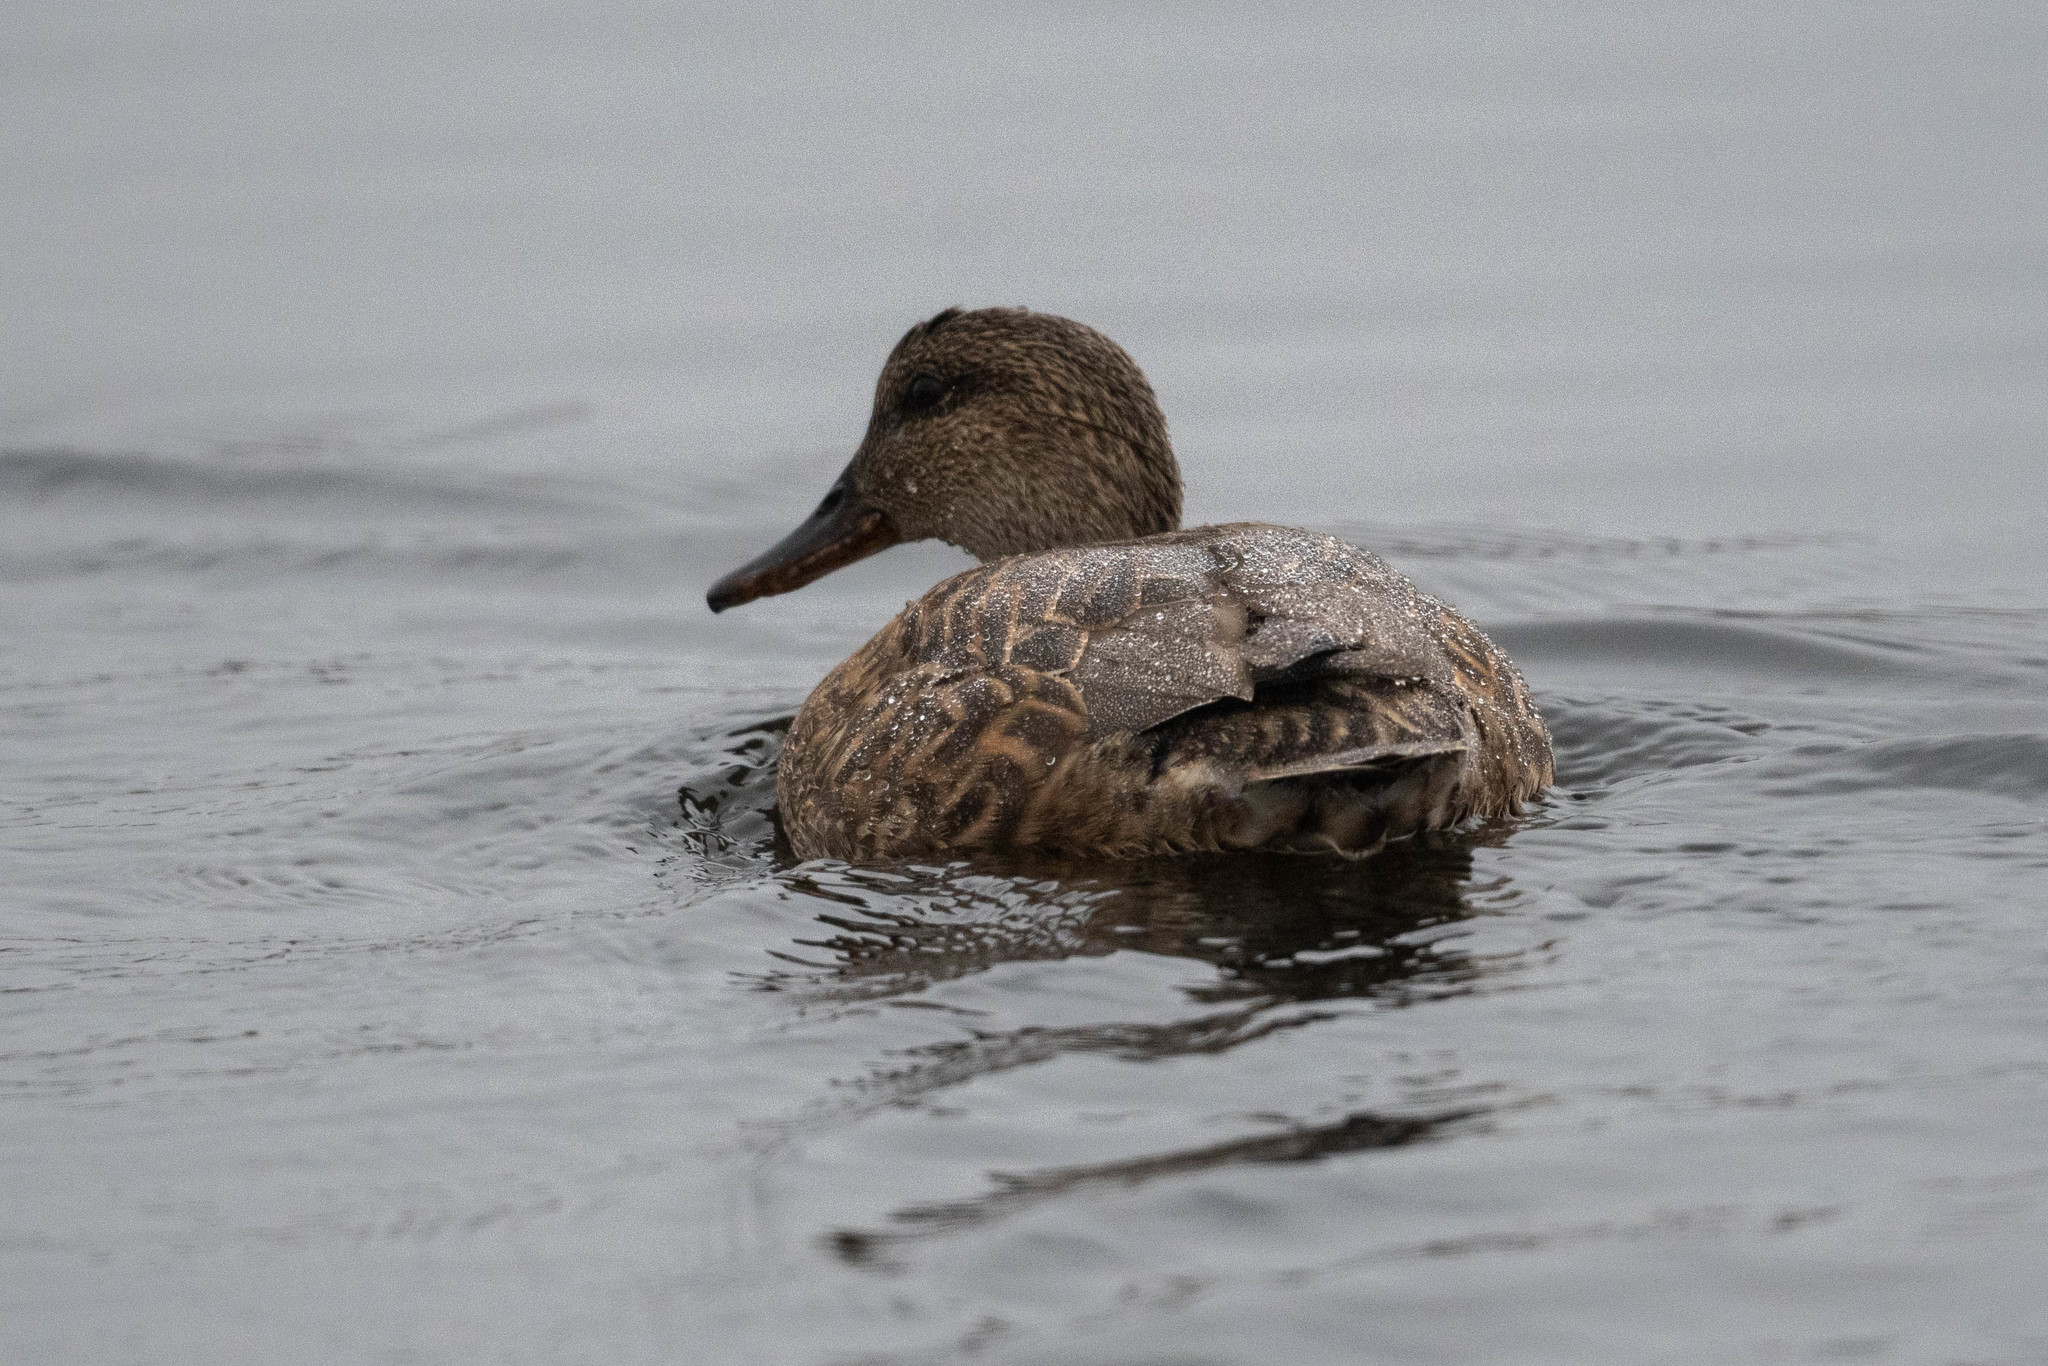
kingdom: Animalia
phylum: Chordata
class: Aves
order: Anseriformes
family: Anatidae
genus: Mareca
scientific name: Mareca strepera
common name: Gadwall
